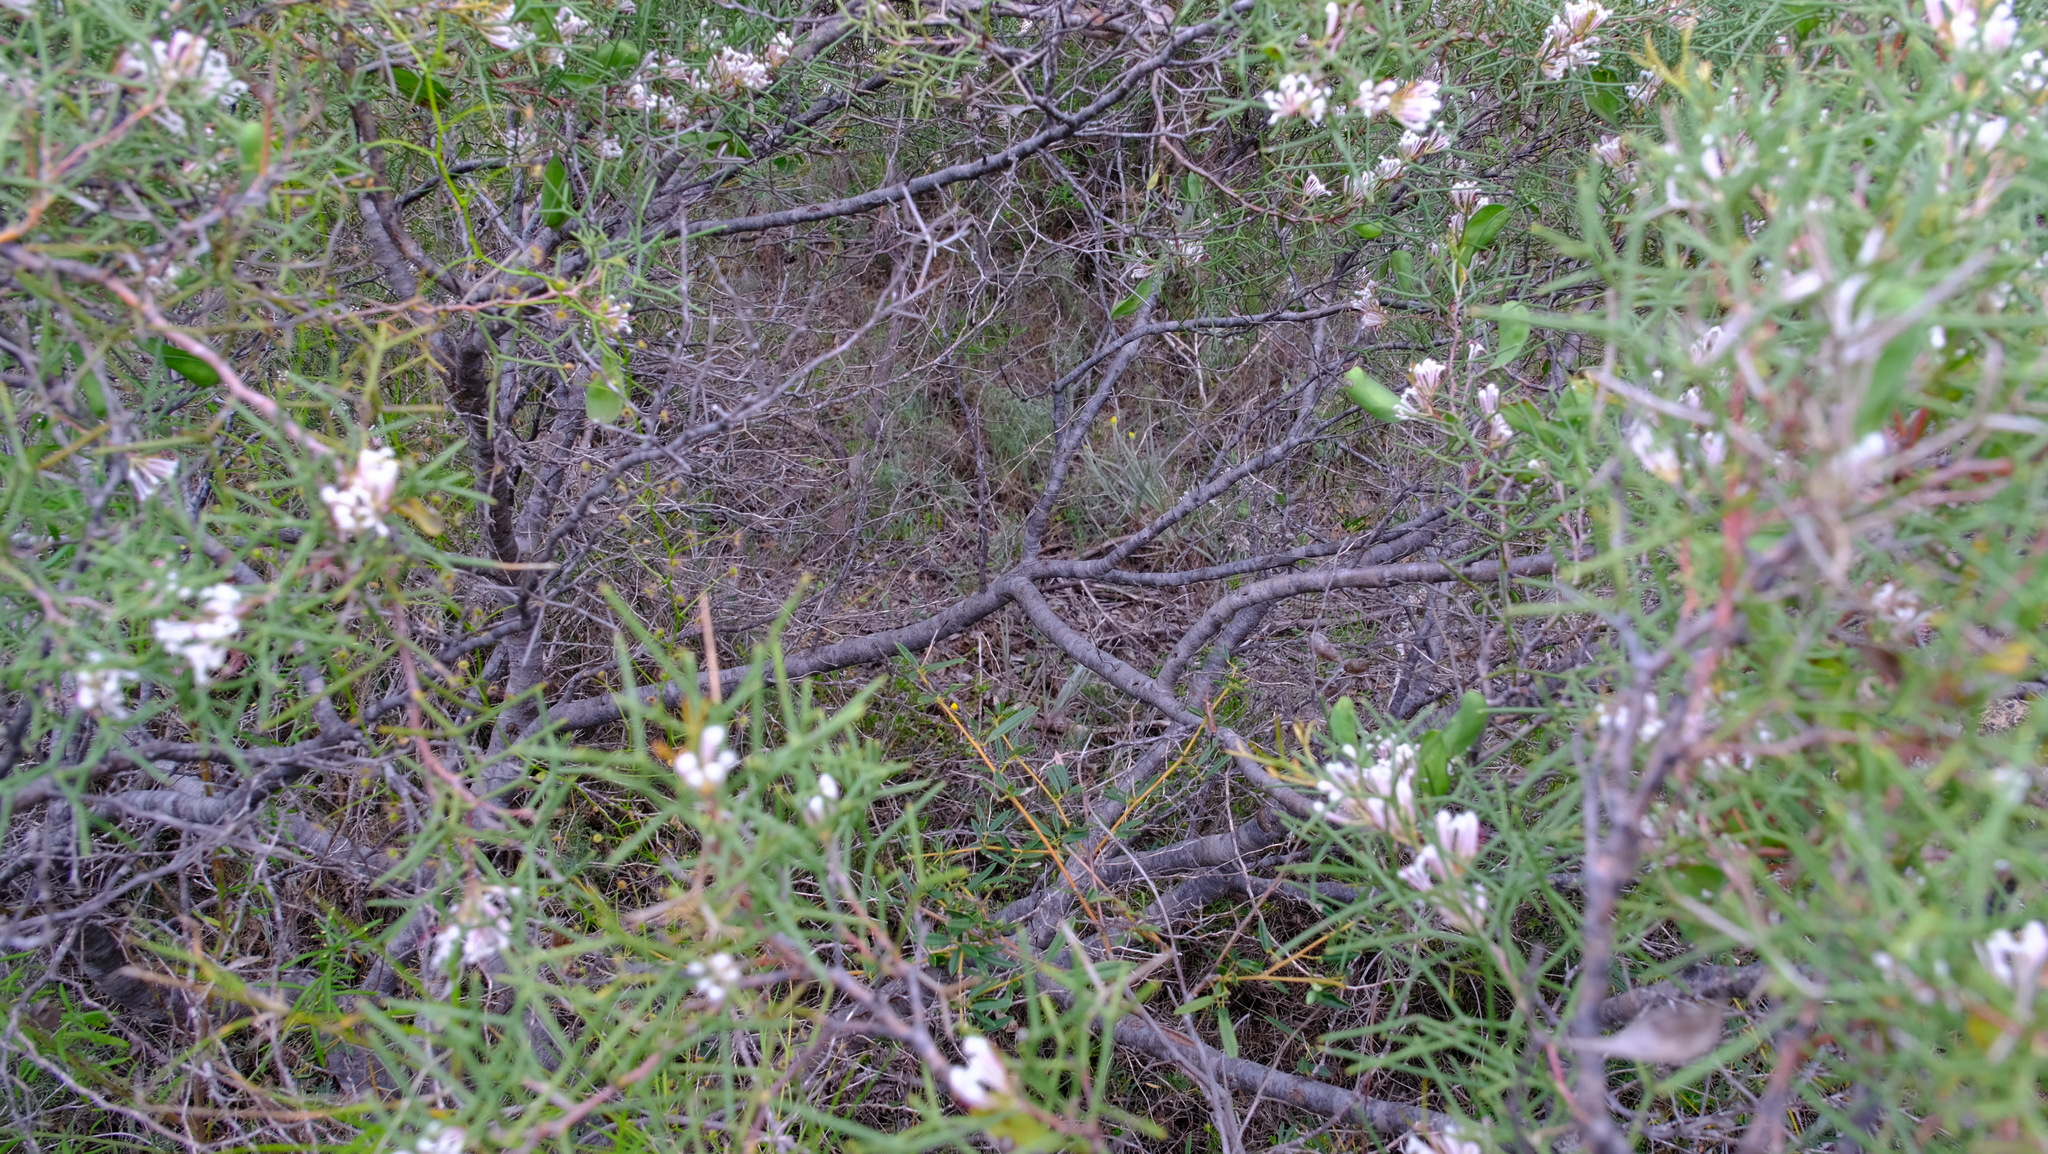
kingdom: Plantae
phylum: Tracheophyta
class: Magnoliopsida
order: Proteales
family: Proteaceae
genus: Hakea
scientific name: Hakea trifurcata
